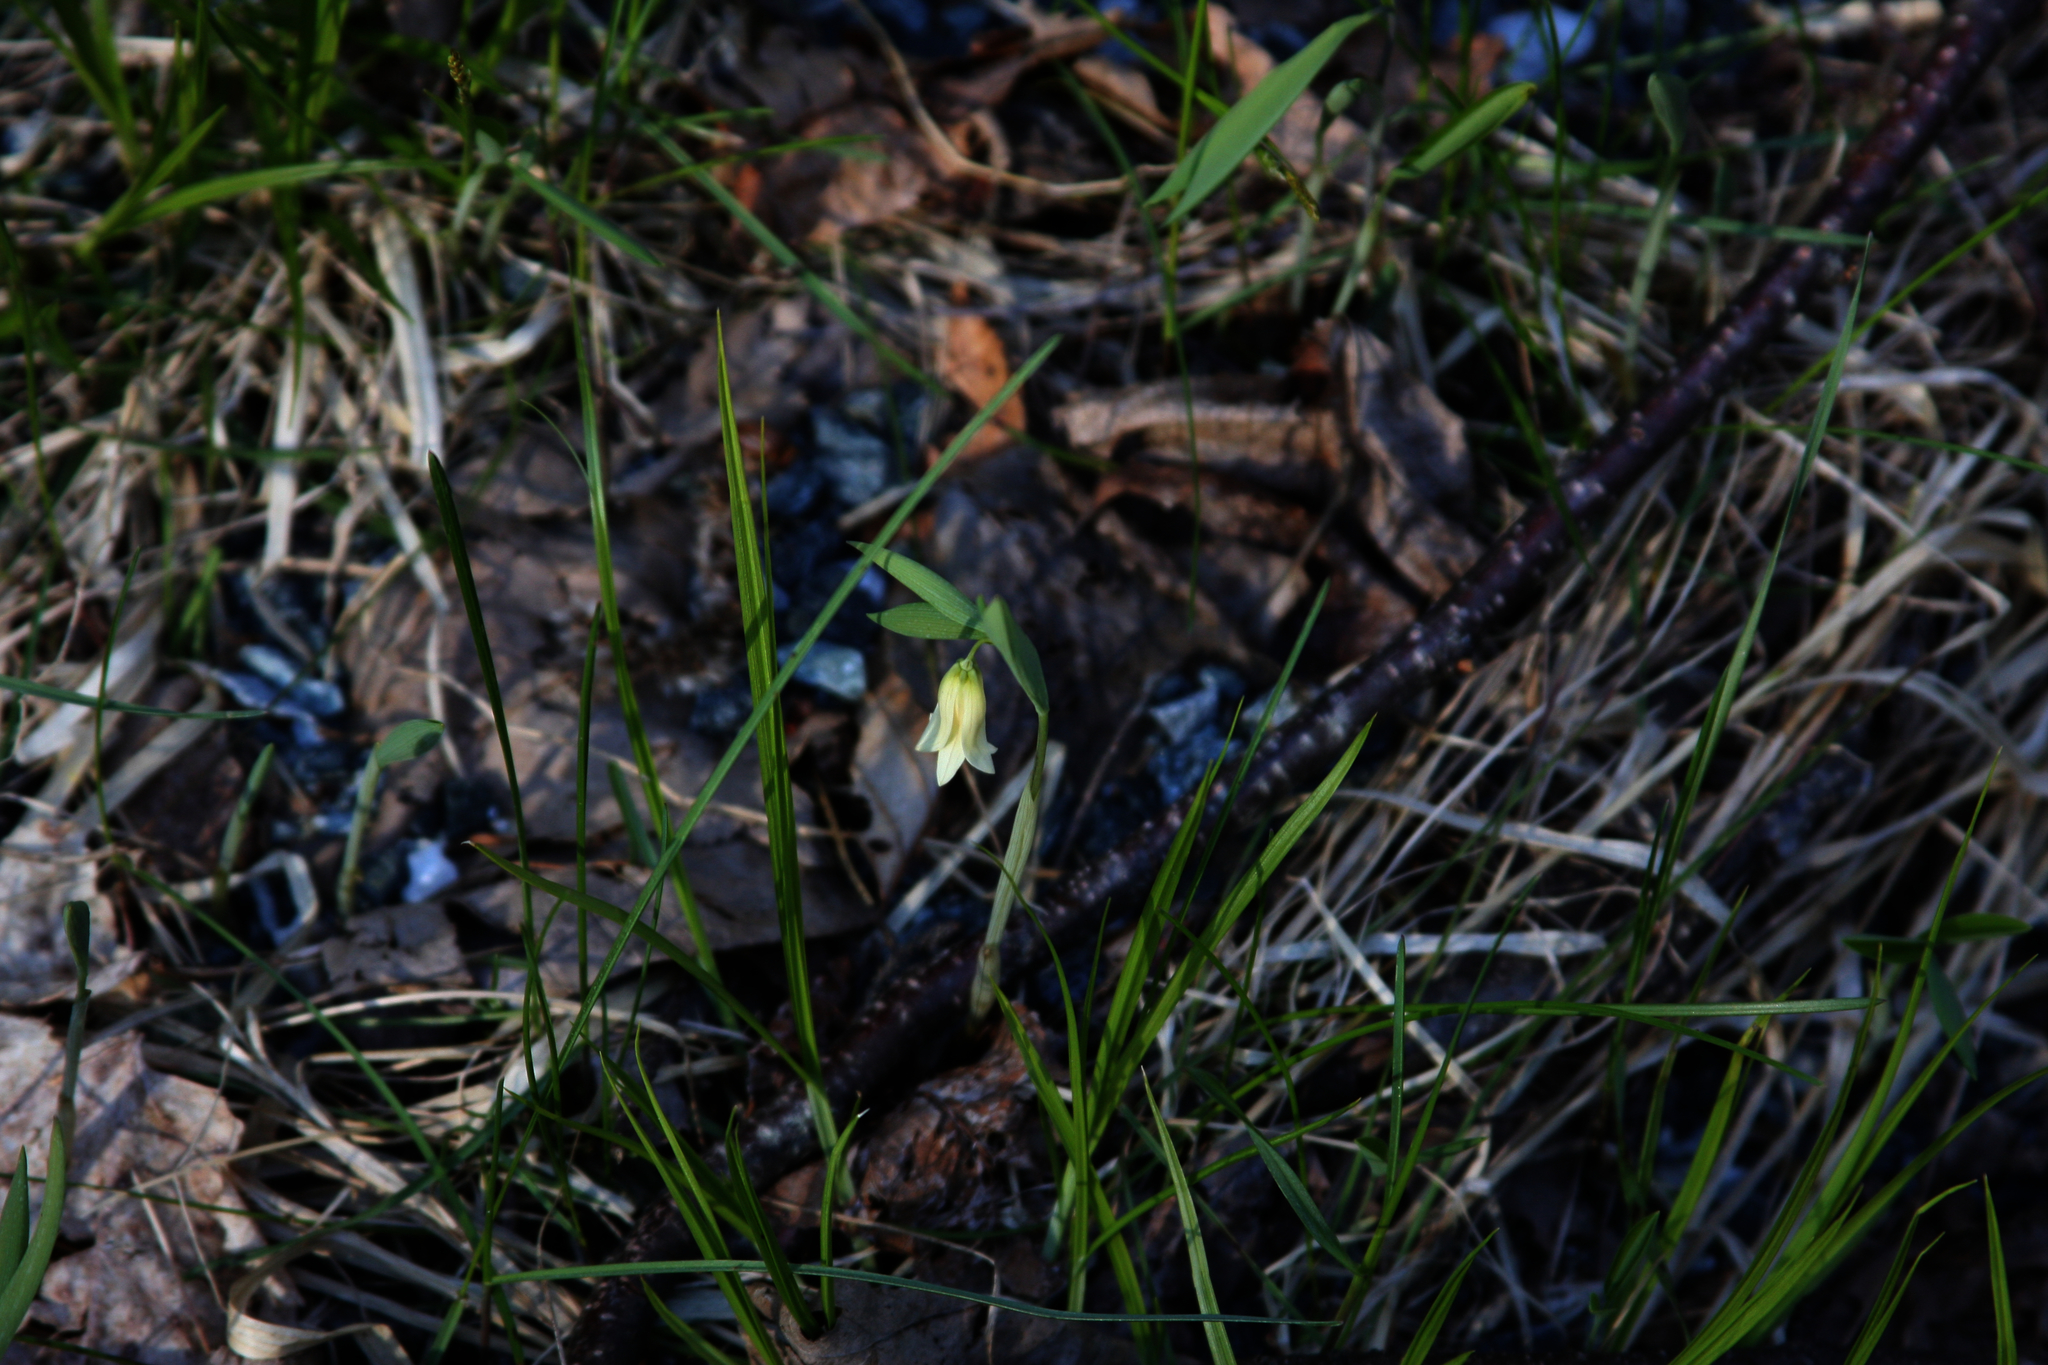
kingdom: Plantae
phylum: Tracheophyta
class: Liliopsida
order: Liliales
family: Colchicaceae
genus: Uvularia
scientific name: Uvularia sessilifolia
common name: Straw-lily
